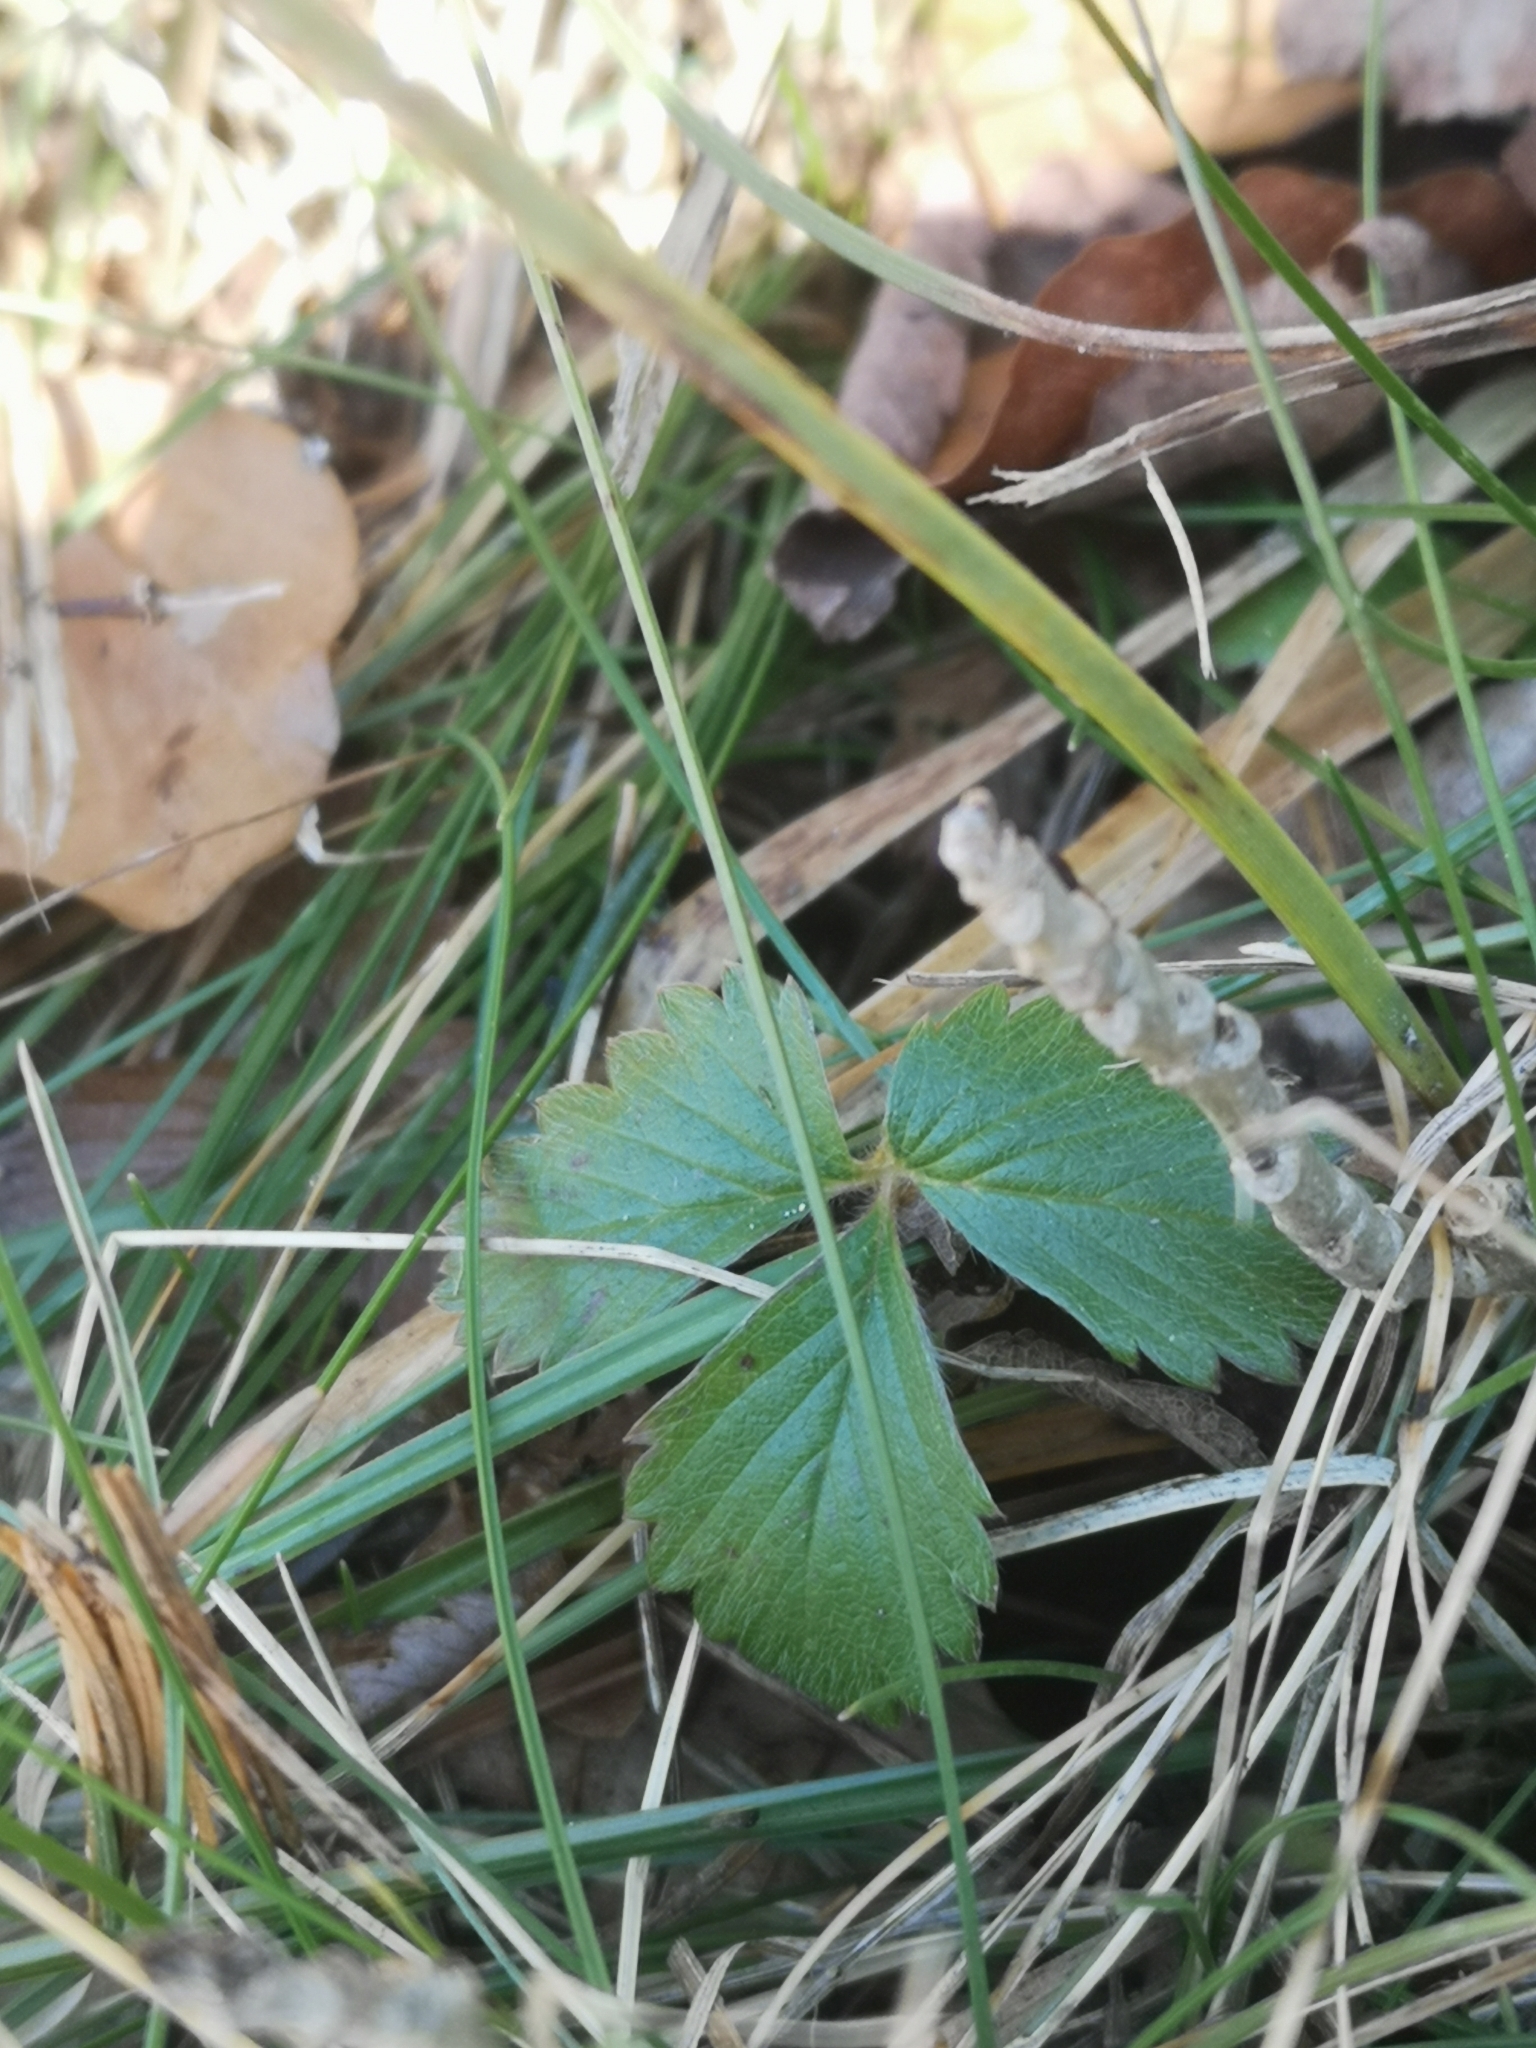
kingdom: Plantae
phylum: Tracheophyta
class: Magnoliopsida
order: Rosales
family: Rosaceae
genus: Fragaria
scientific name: Fragaria vesca
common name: Wild strawberry
